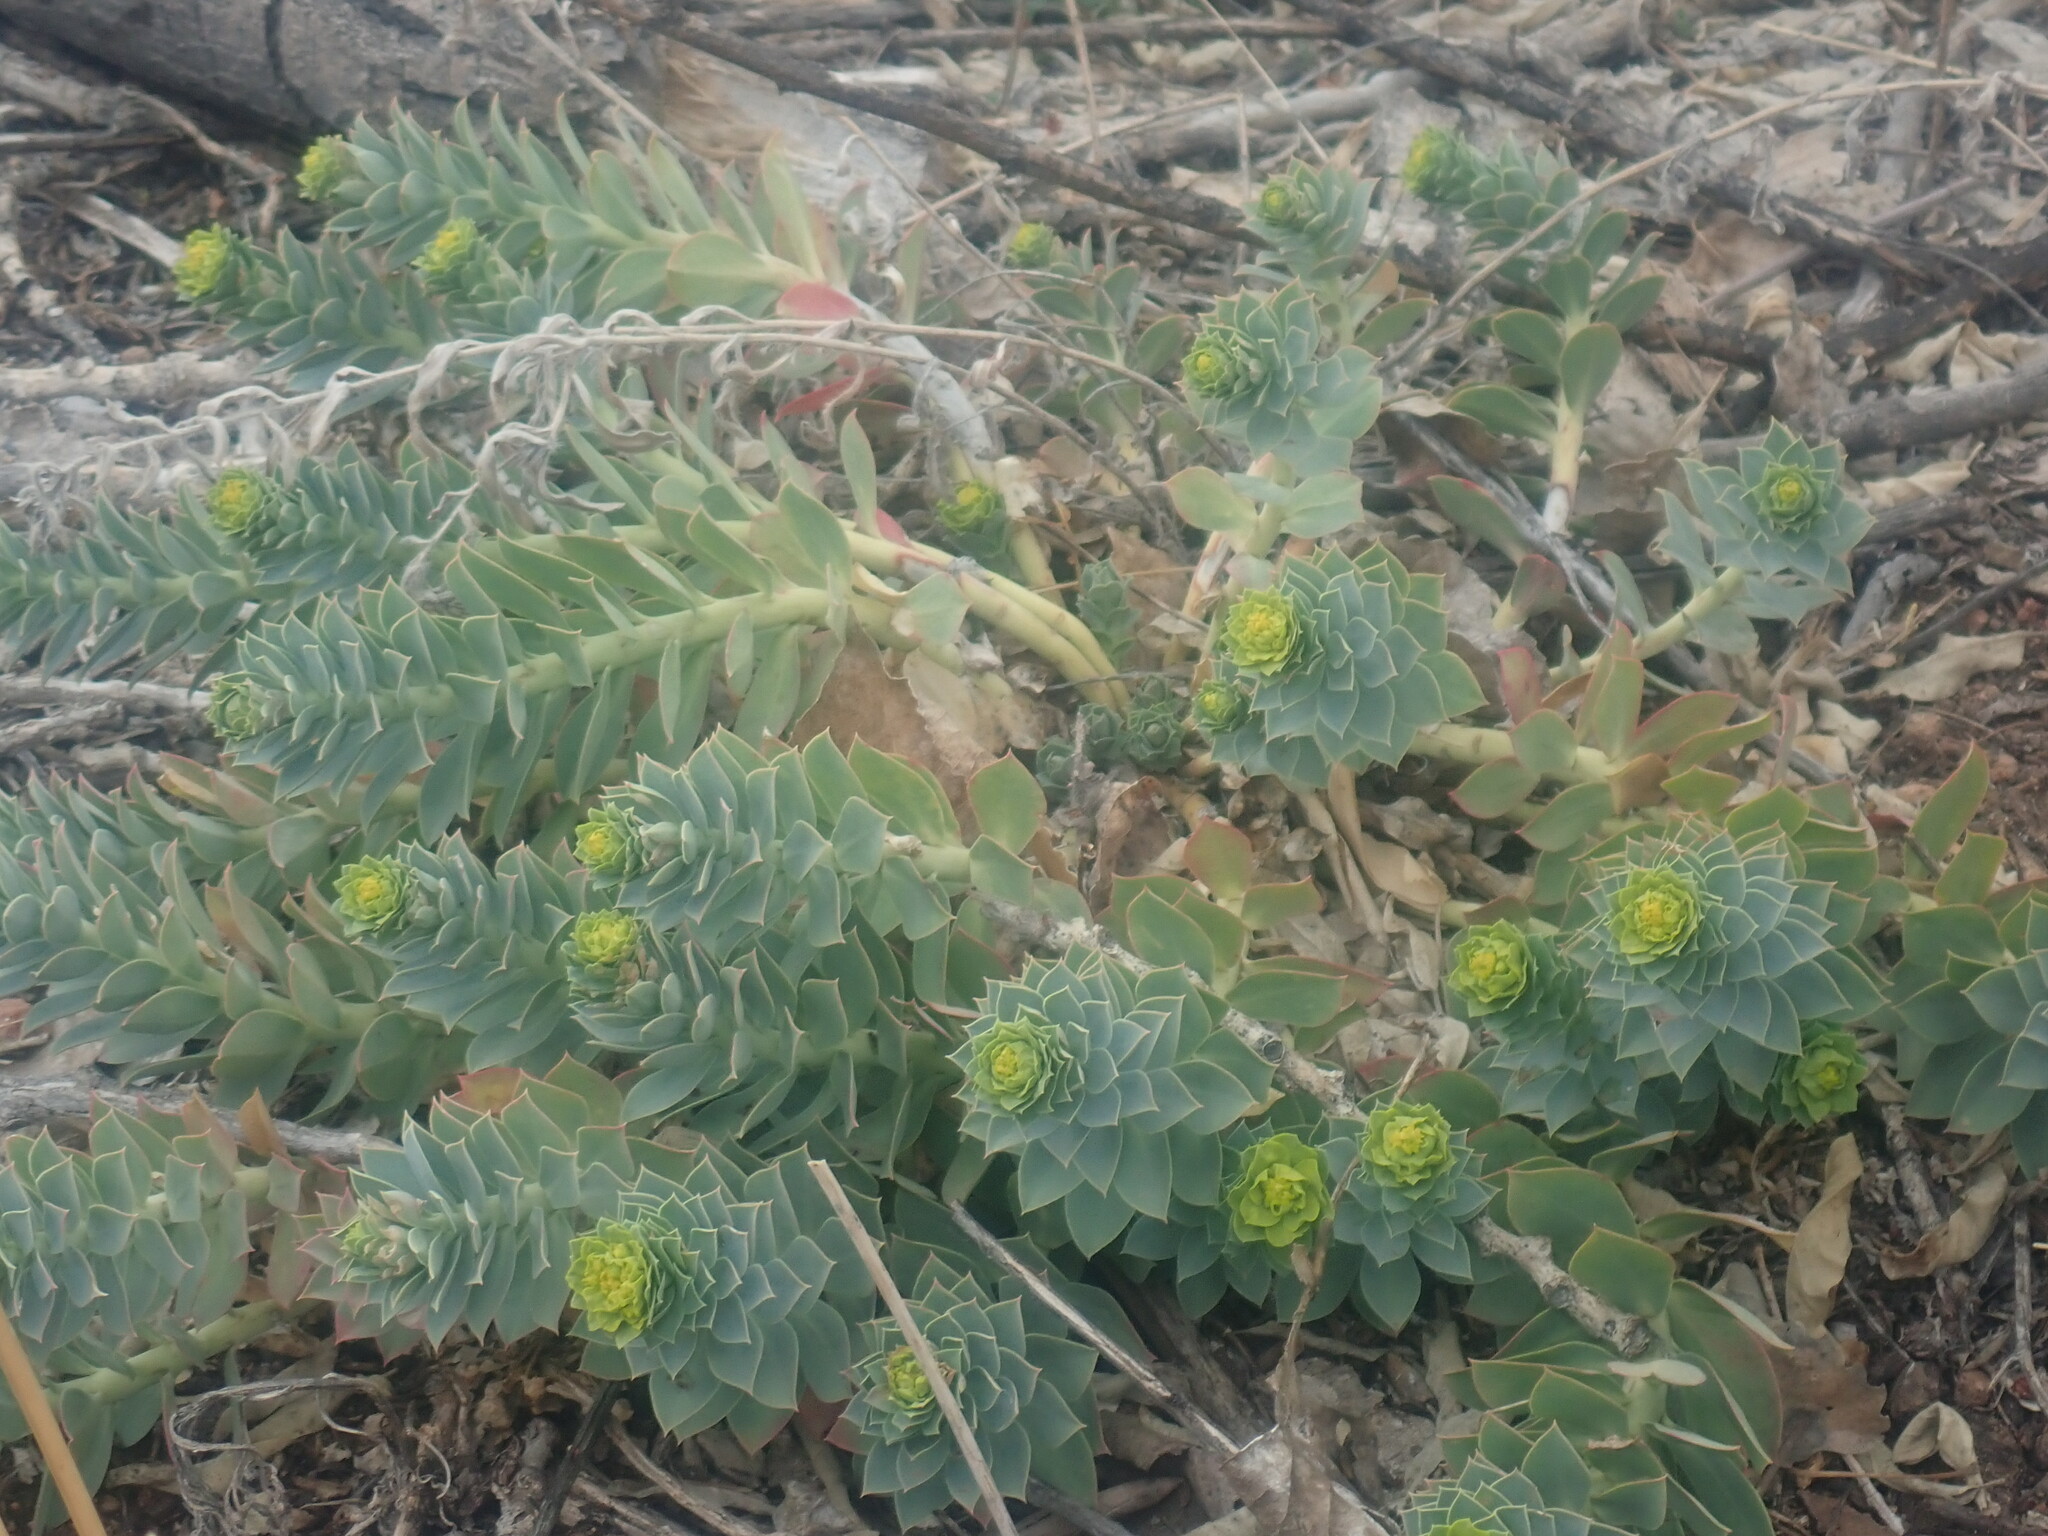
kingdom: Plantae
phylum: Tracheophyta
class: Magnoliopsida
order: Malpighiales
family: Euphorbiaceae
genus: Euphorbia
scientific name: Euphorbia myrsinites
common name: Myrtle spurge
